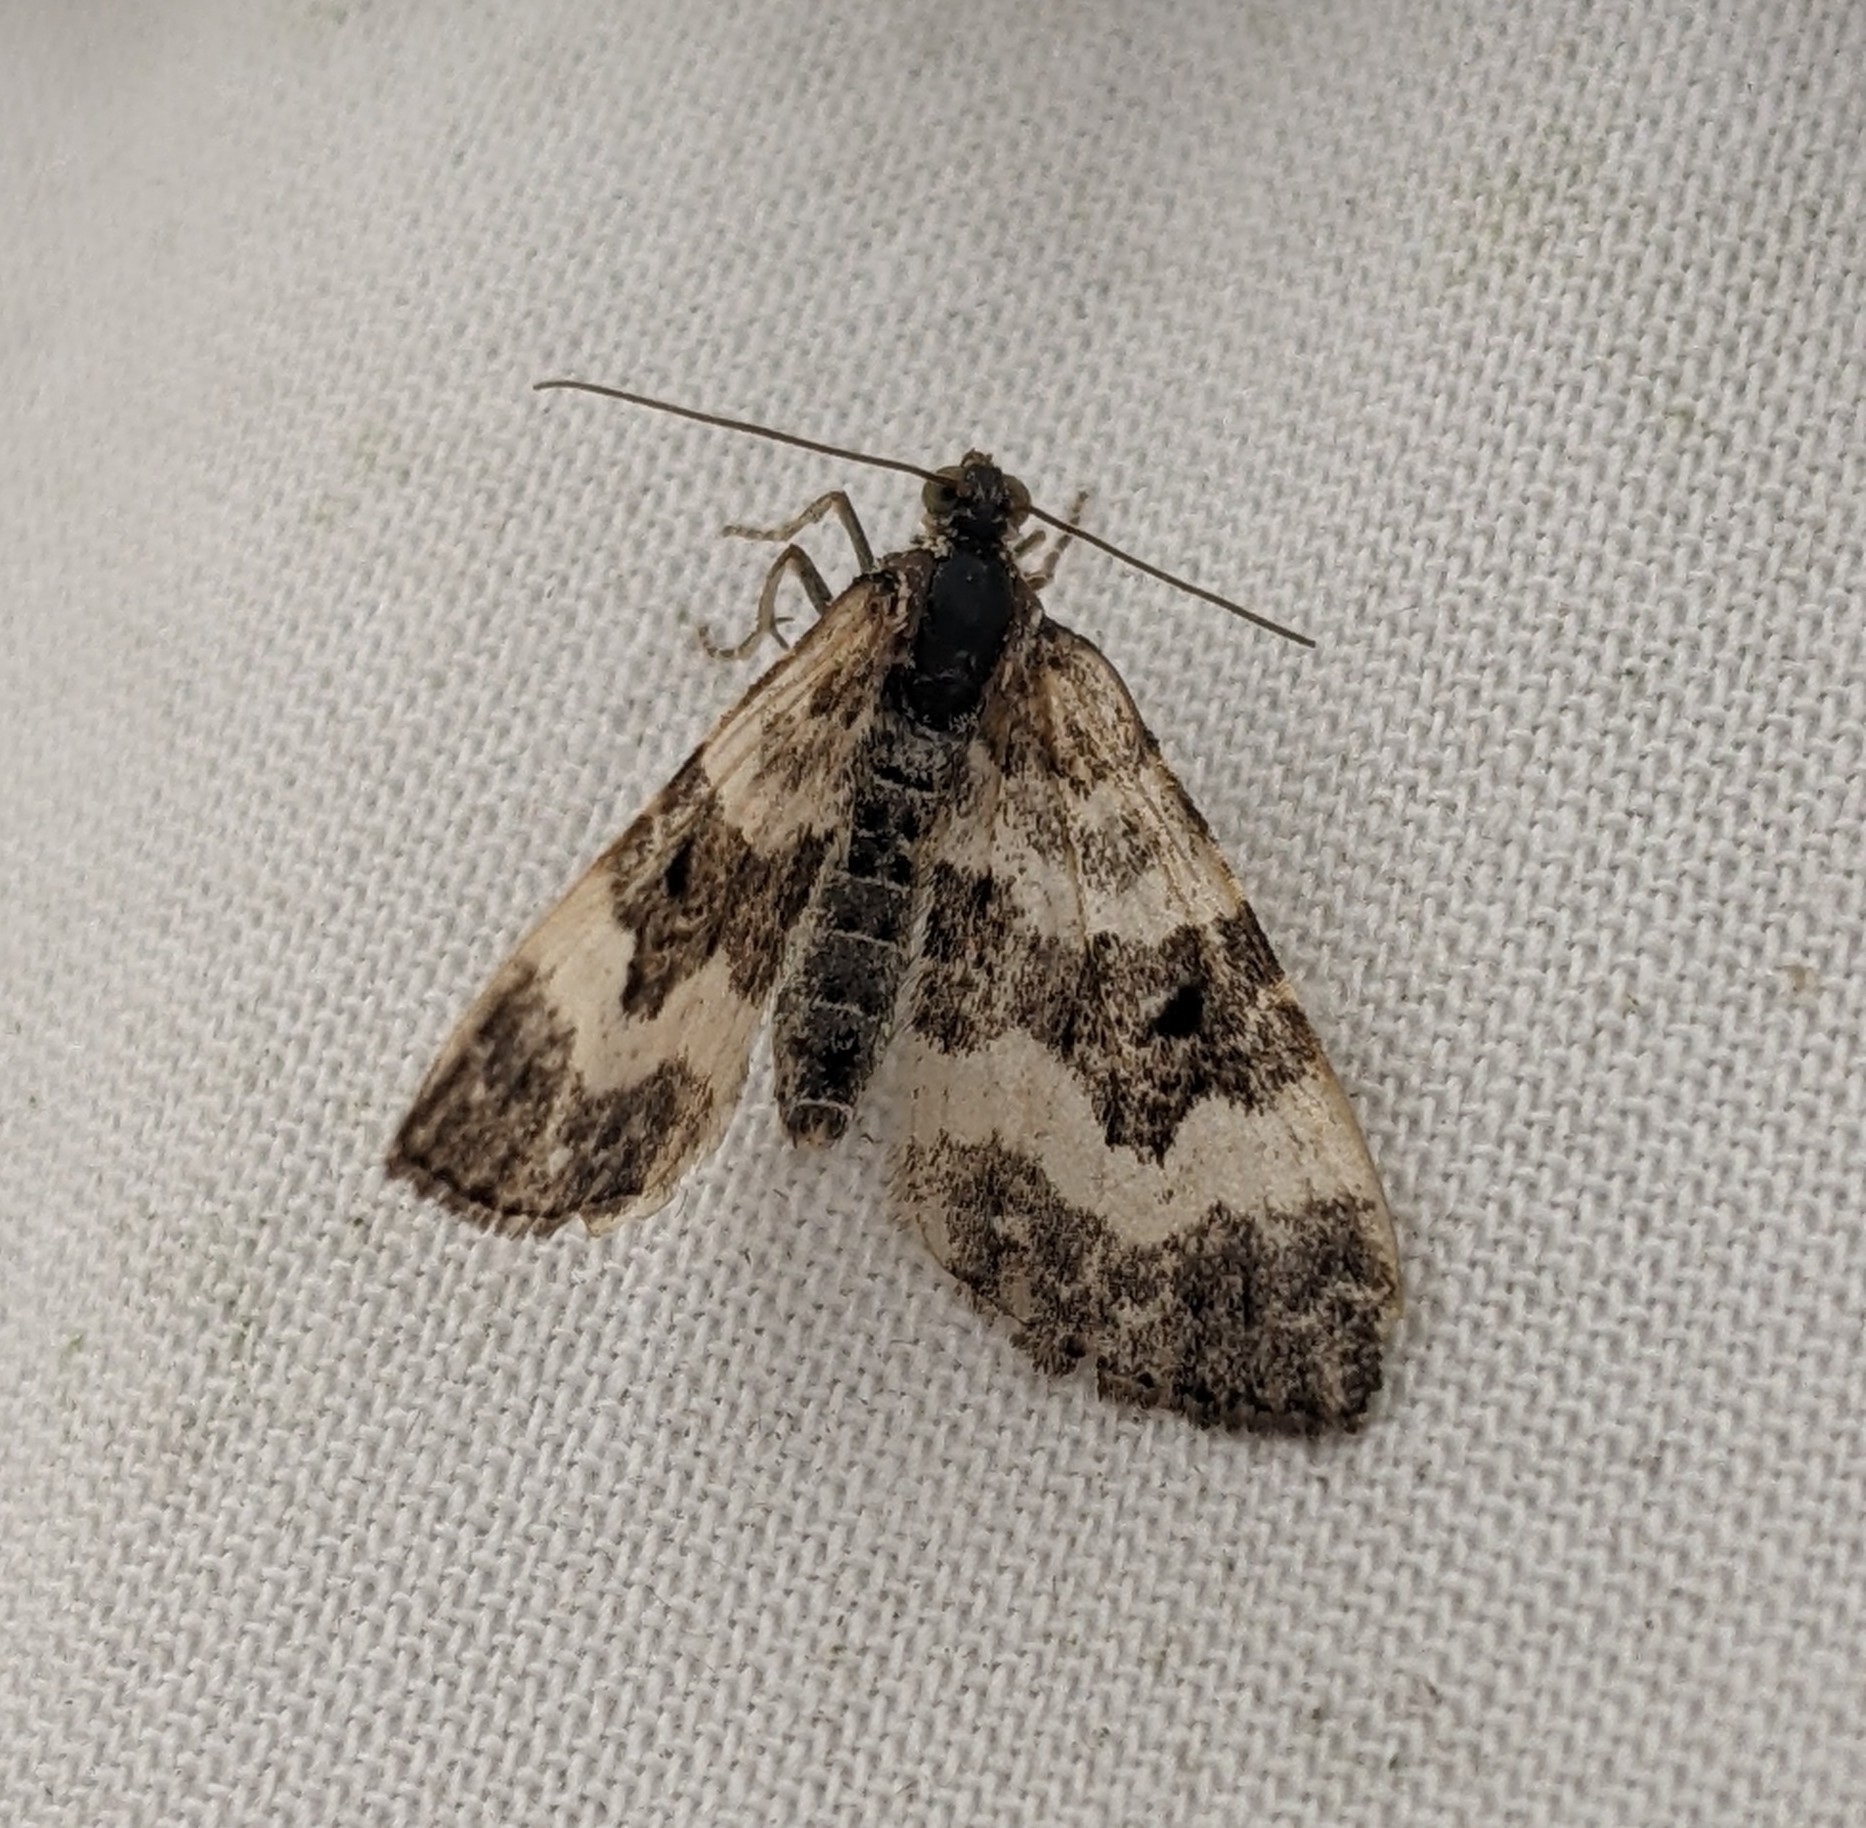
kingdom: Animalia
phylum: Arthropoda
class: Insecta
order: Lepidoptera
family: Geometridae
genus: Epirrhoe
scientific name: Epirrhoe alternata
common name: Common carpet
